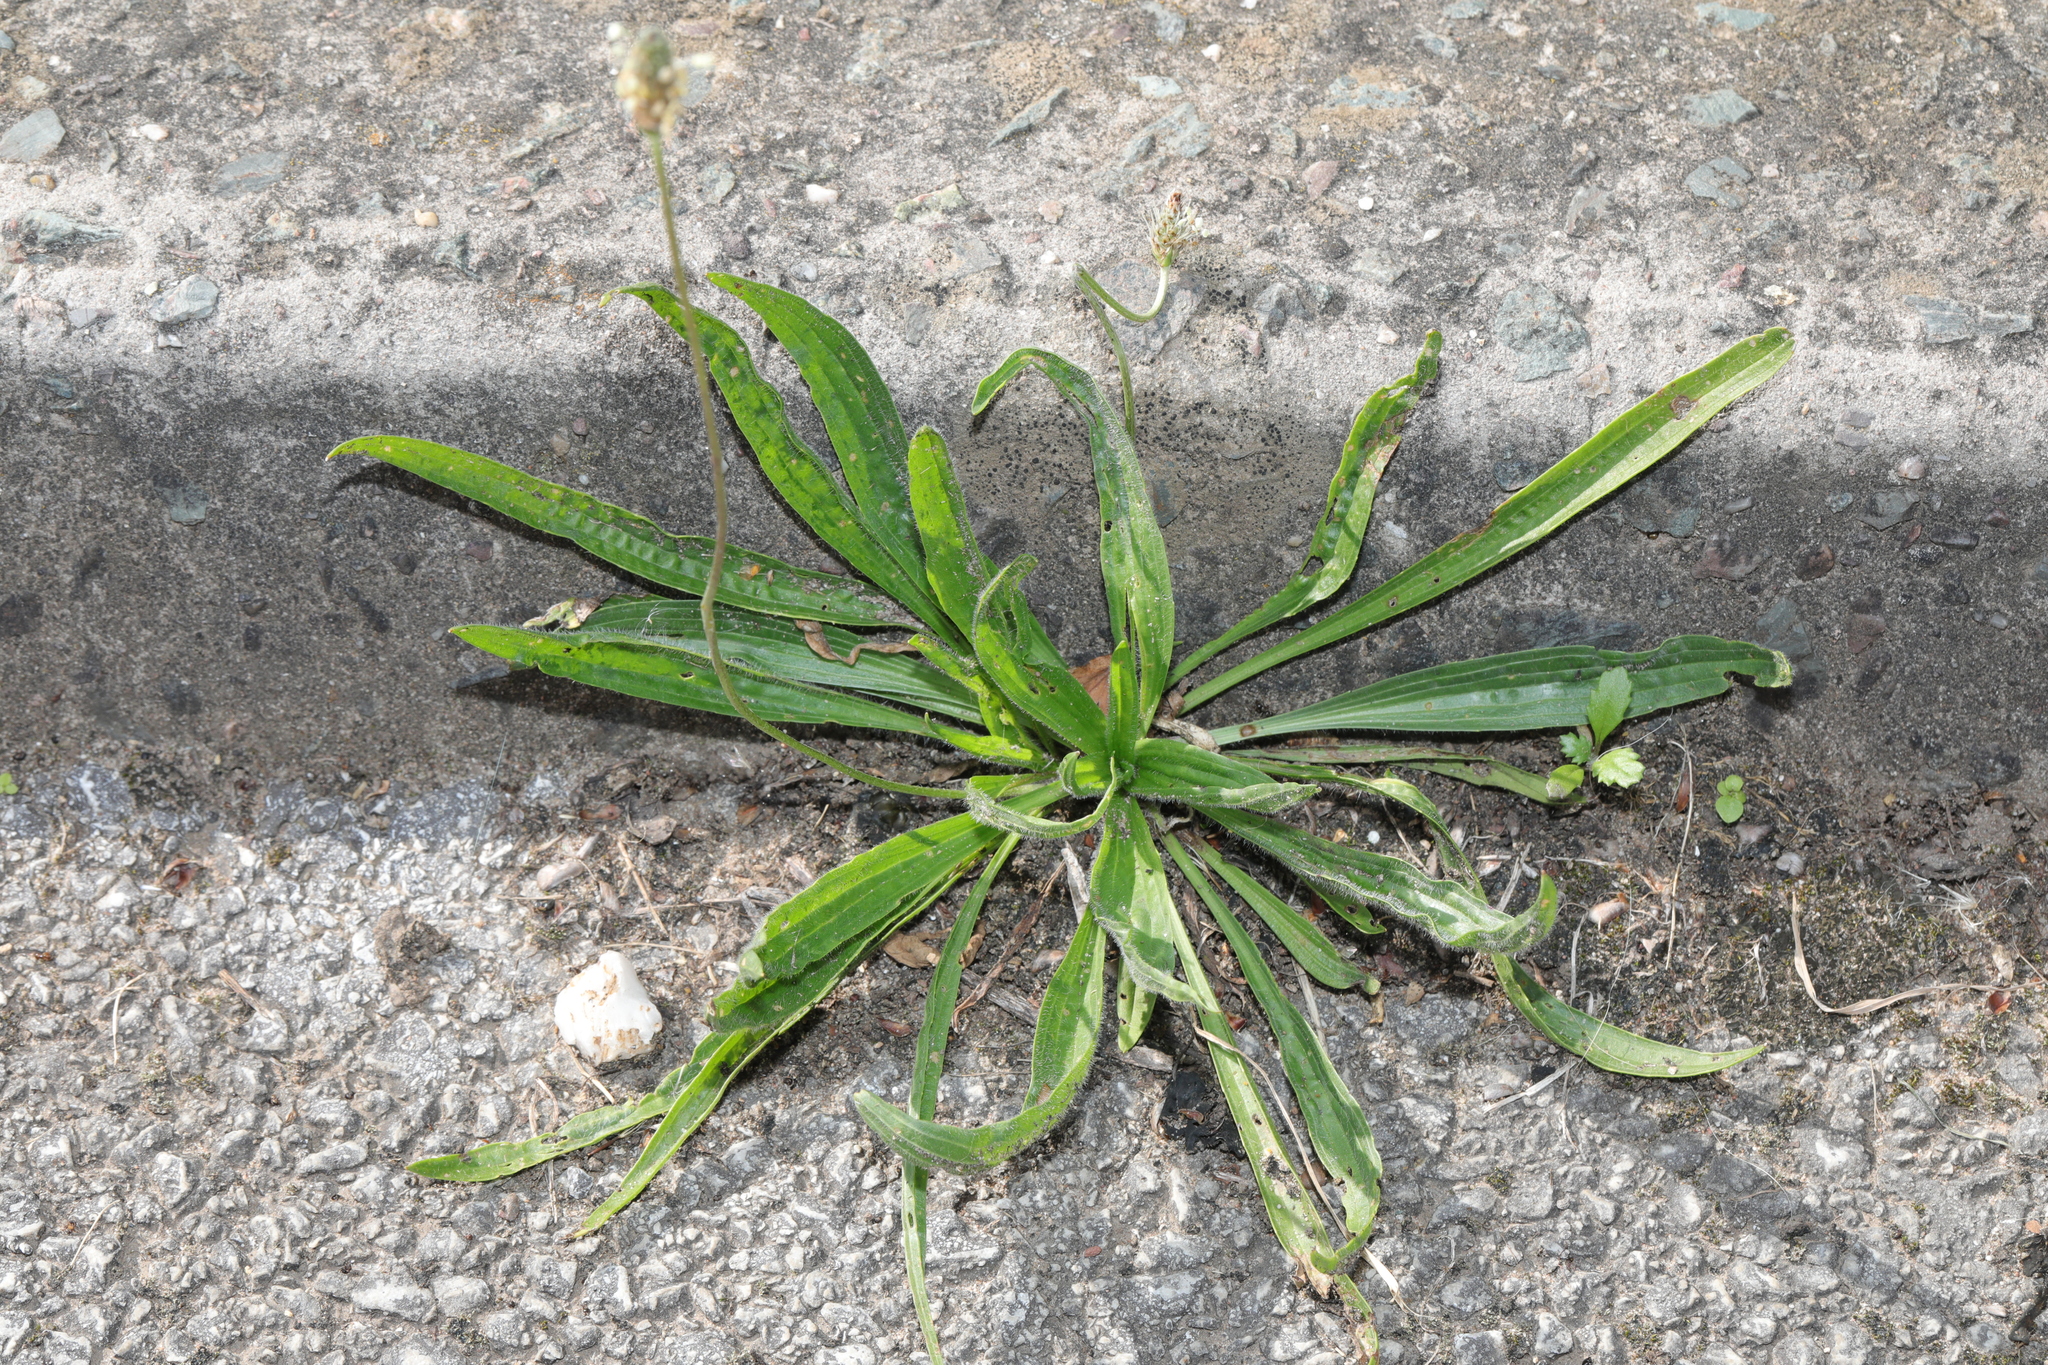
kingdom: Plantae
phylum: Tracheophyta
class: Magnoliopsida
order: Lamiales
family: Plantaginaceae
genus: Plantago
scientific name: Plantago lanceolata
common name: Ribwort plantain
